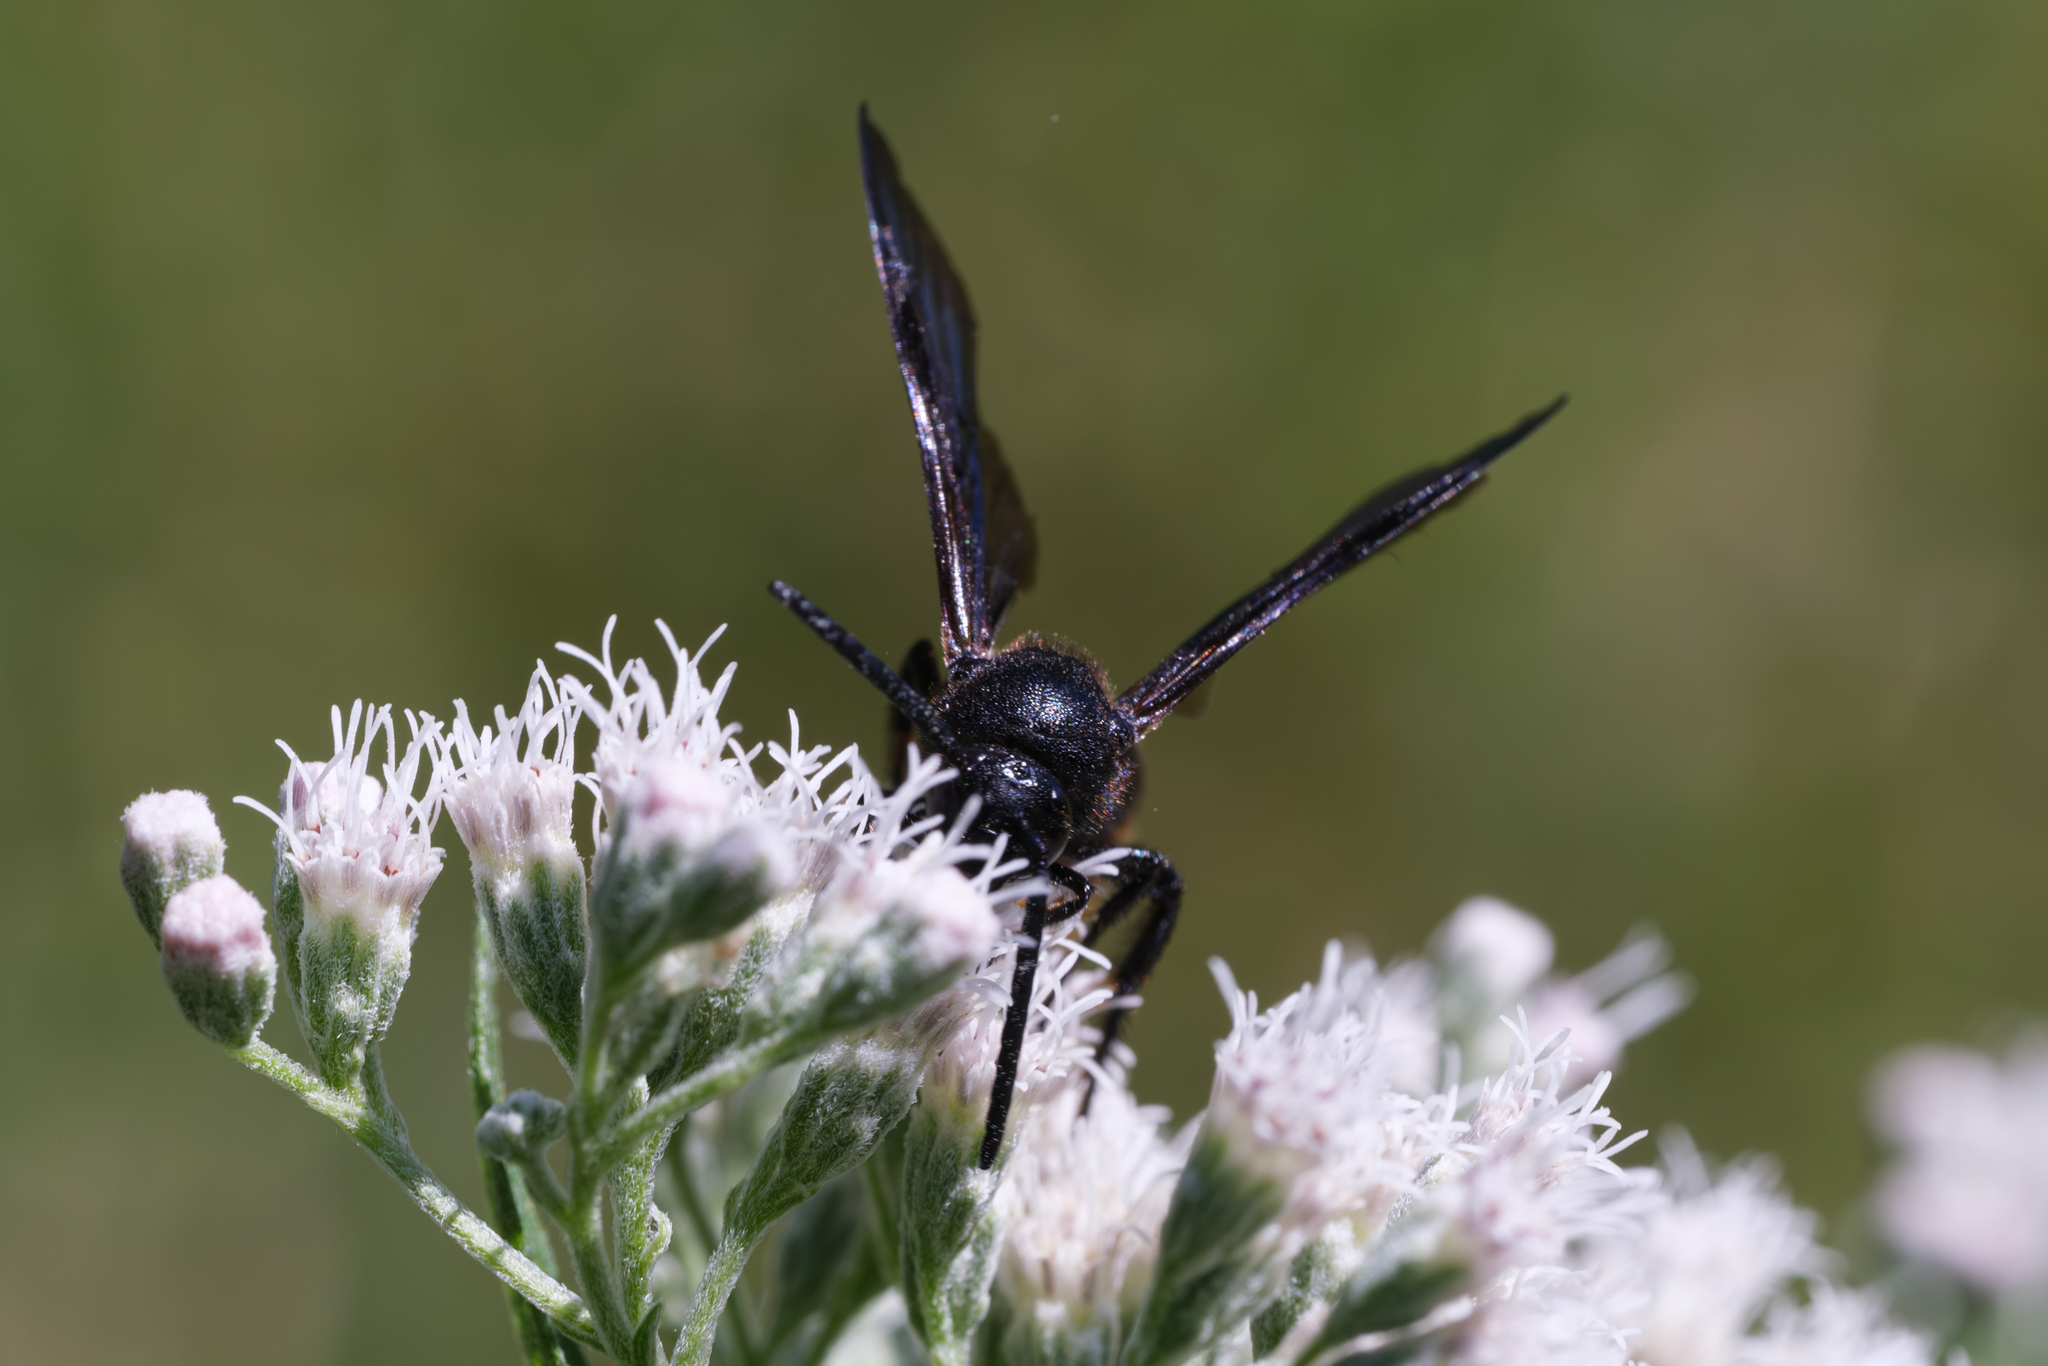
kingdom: Animalia
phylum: Arthropoda
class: Insecta
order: Hymenoptera
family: Scoliidae
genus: Scolia
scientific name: Scolia dubia
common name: Blue-winged scoliid wasp
